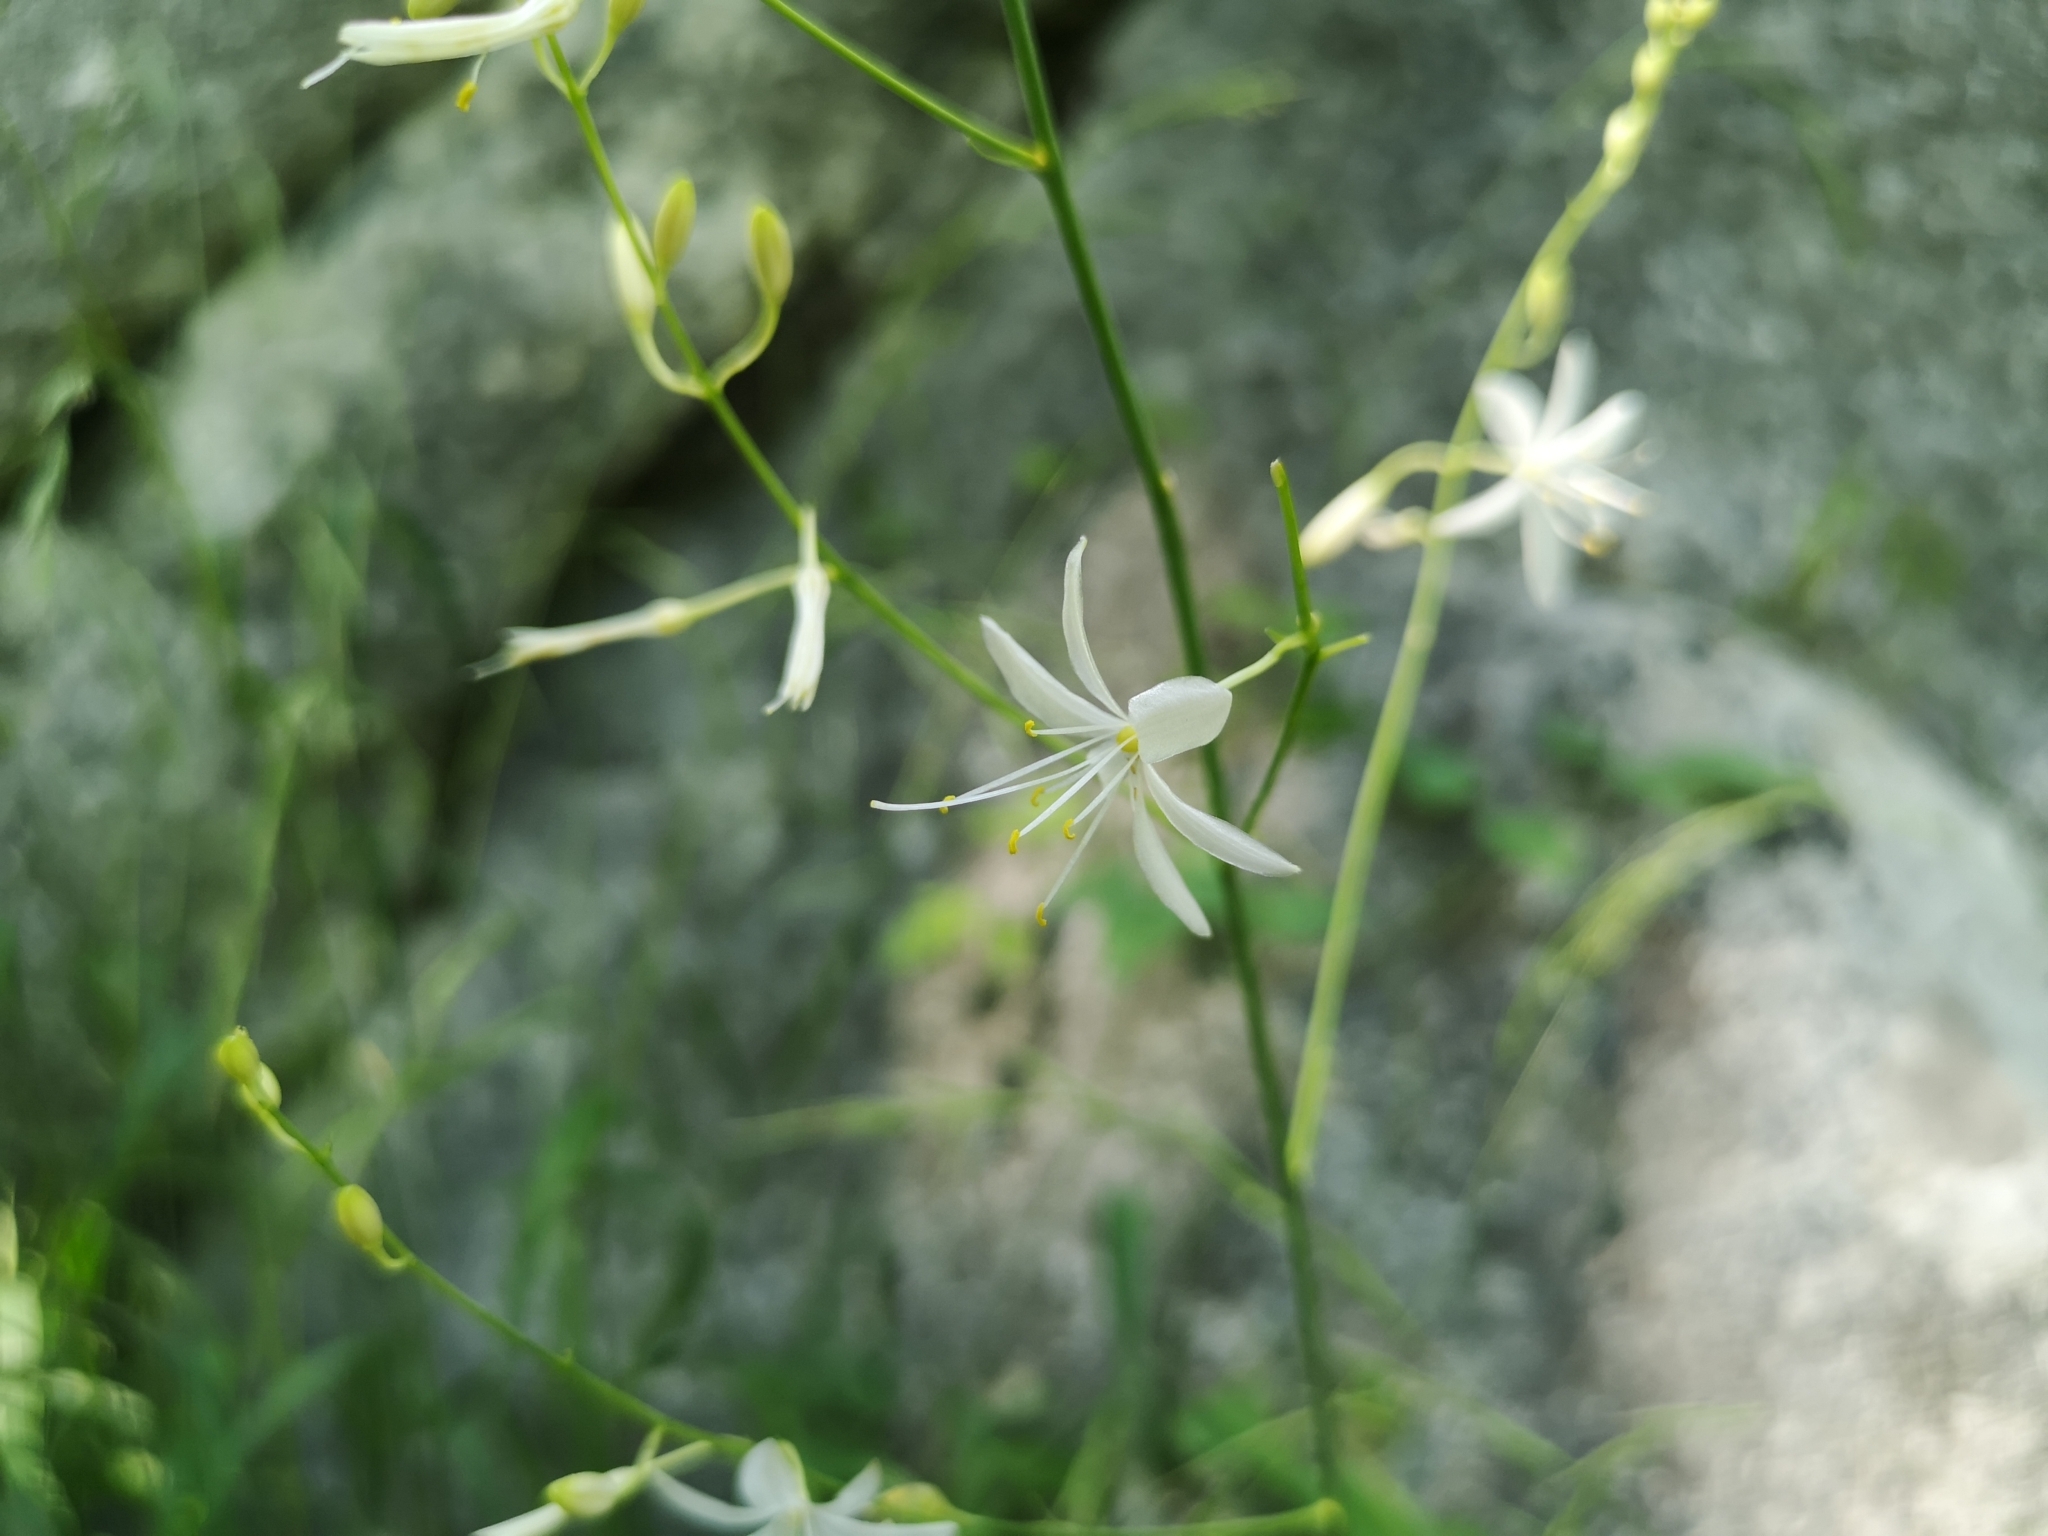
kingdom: Plantae
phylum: Tracheophyta
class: Liliopsida
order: Asparagales
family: Asparagaceae
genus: Anthericum
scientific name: Anthericum ramosum
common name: Branched st. bernard's-lily
